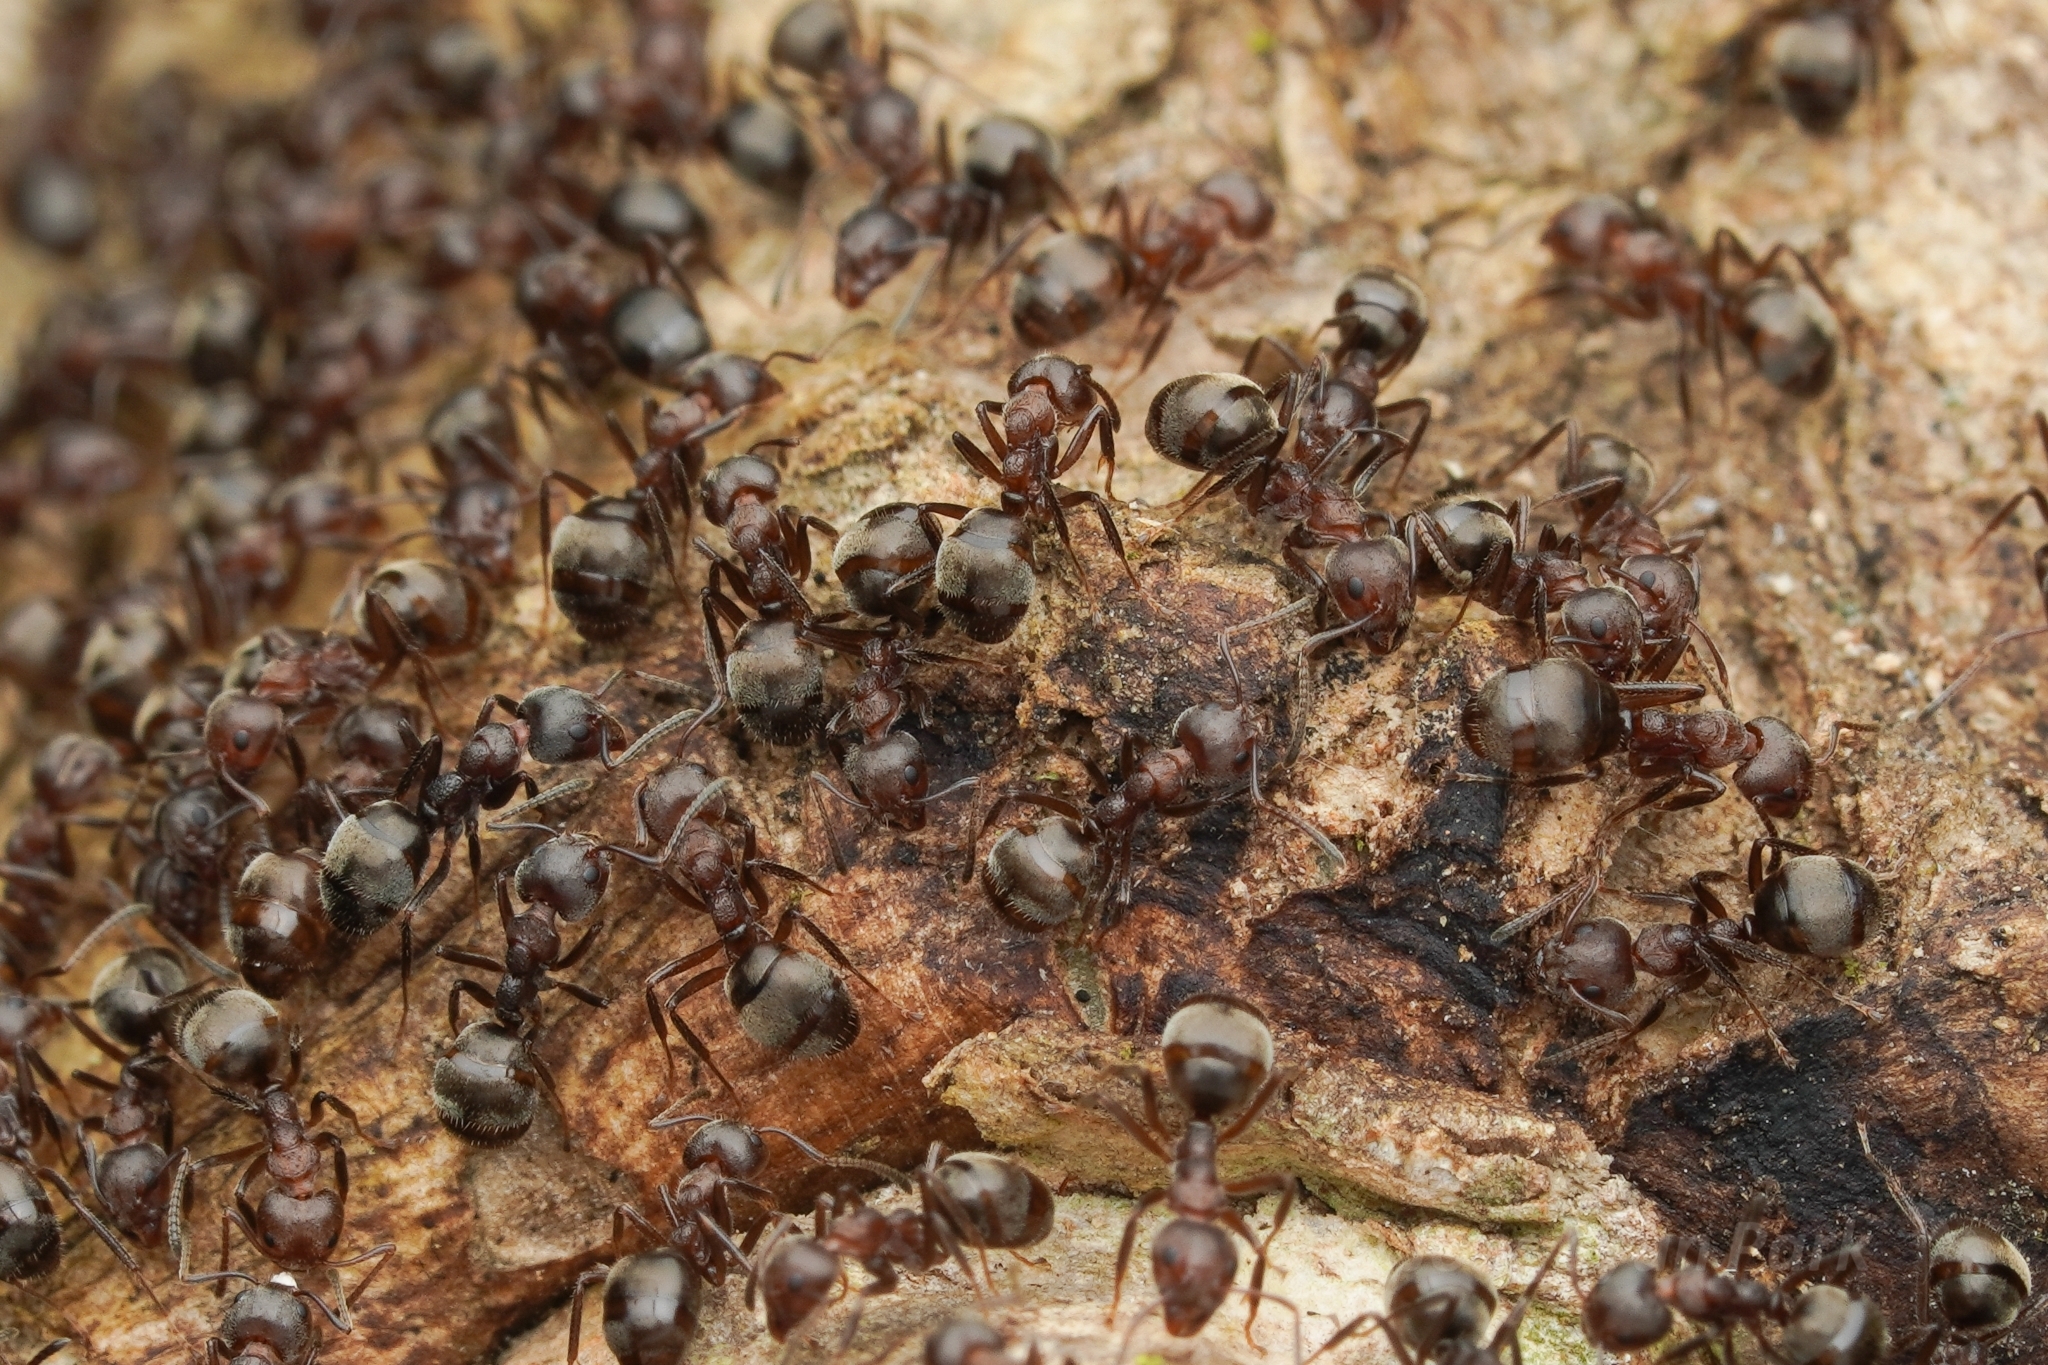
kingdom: Animalia
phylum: Arthropoda
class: Insecta
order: Hymenoptera
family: Formicidae
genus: Dolichoderus
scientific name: Dolichoderus thoracicus
